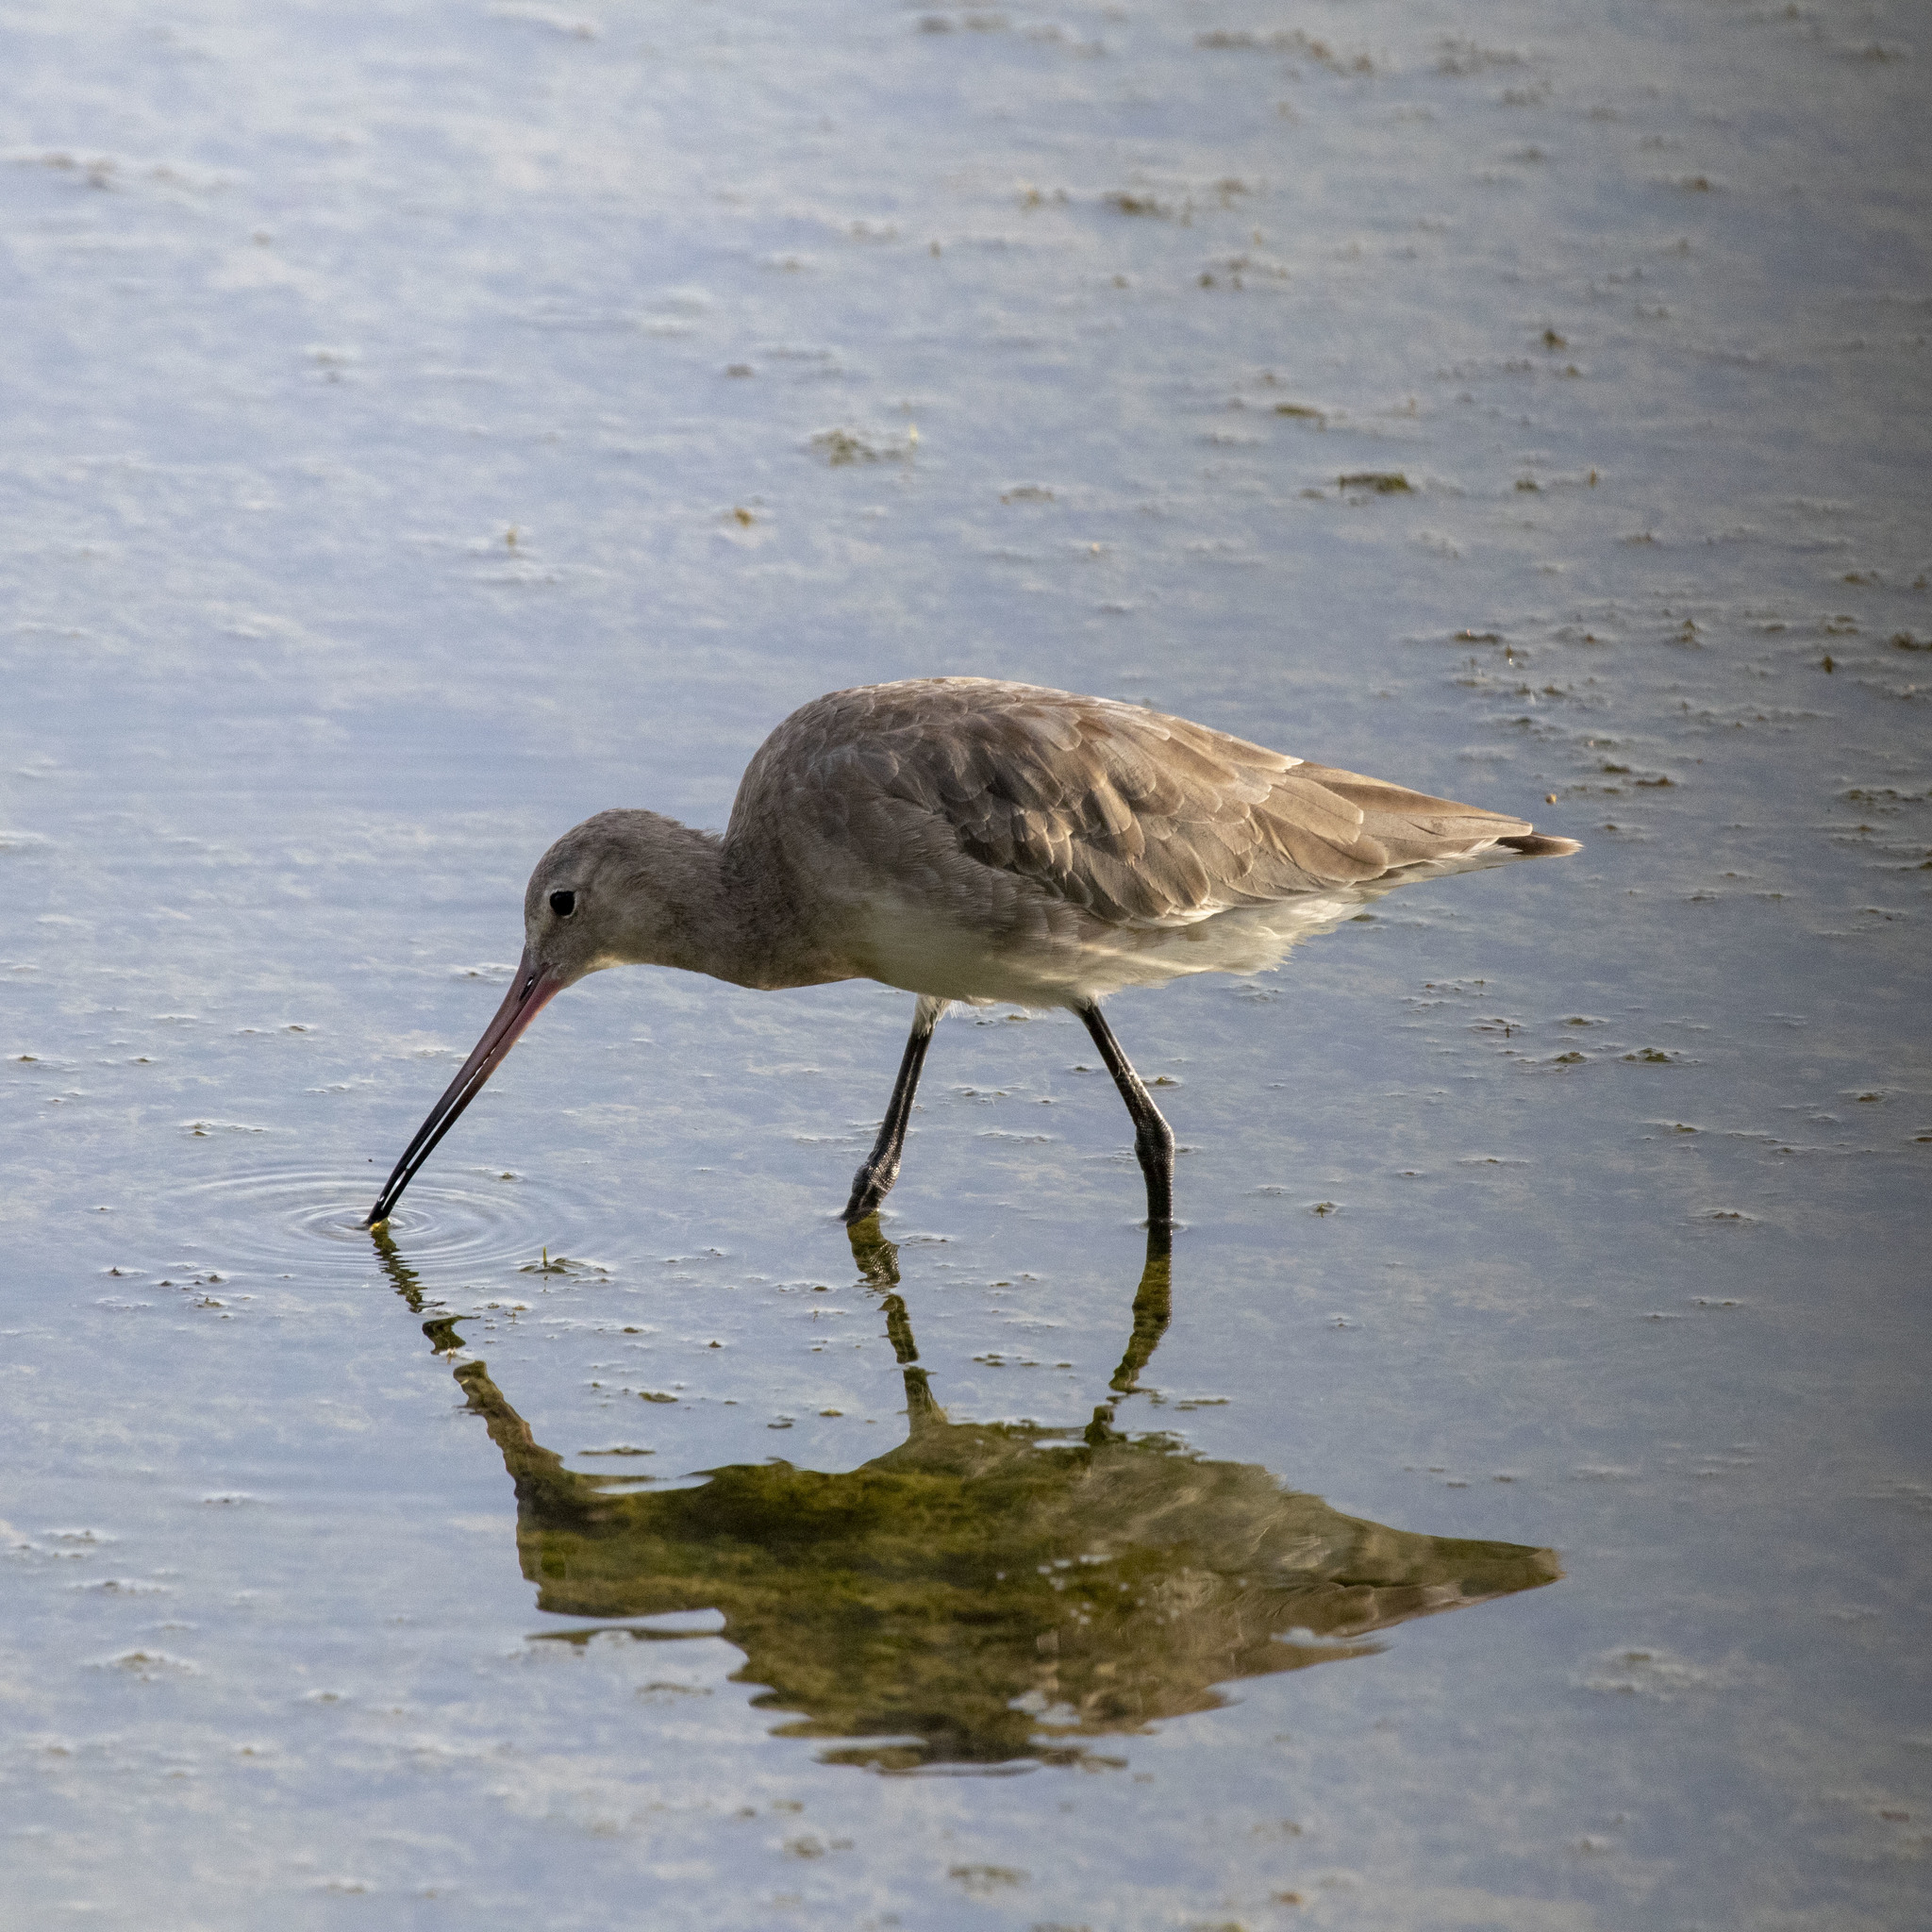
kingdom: Animalia
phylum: Chordata
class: Aves
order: Charadriiformes
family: Scolopacidae
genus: Limosa
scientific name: Limosa limosa
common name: Black-tailed godwit
